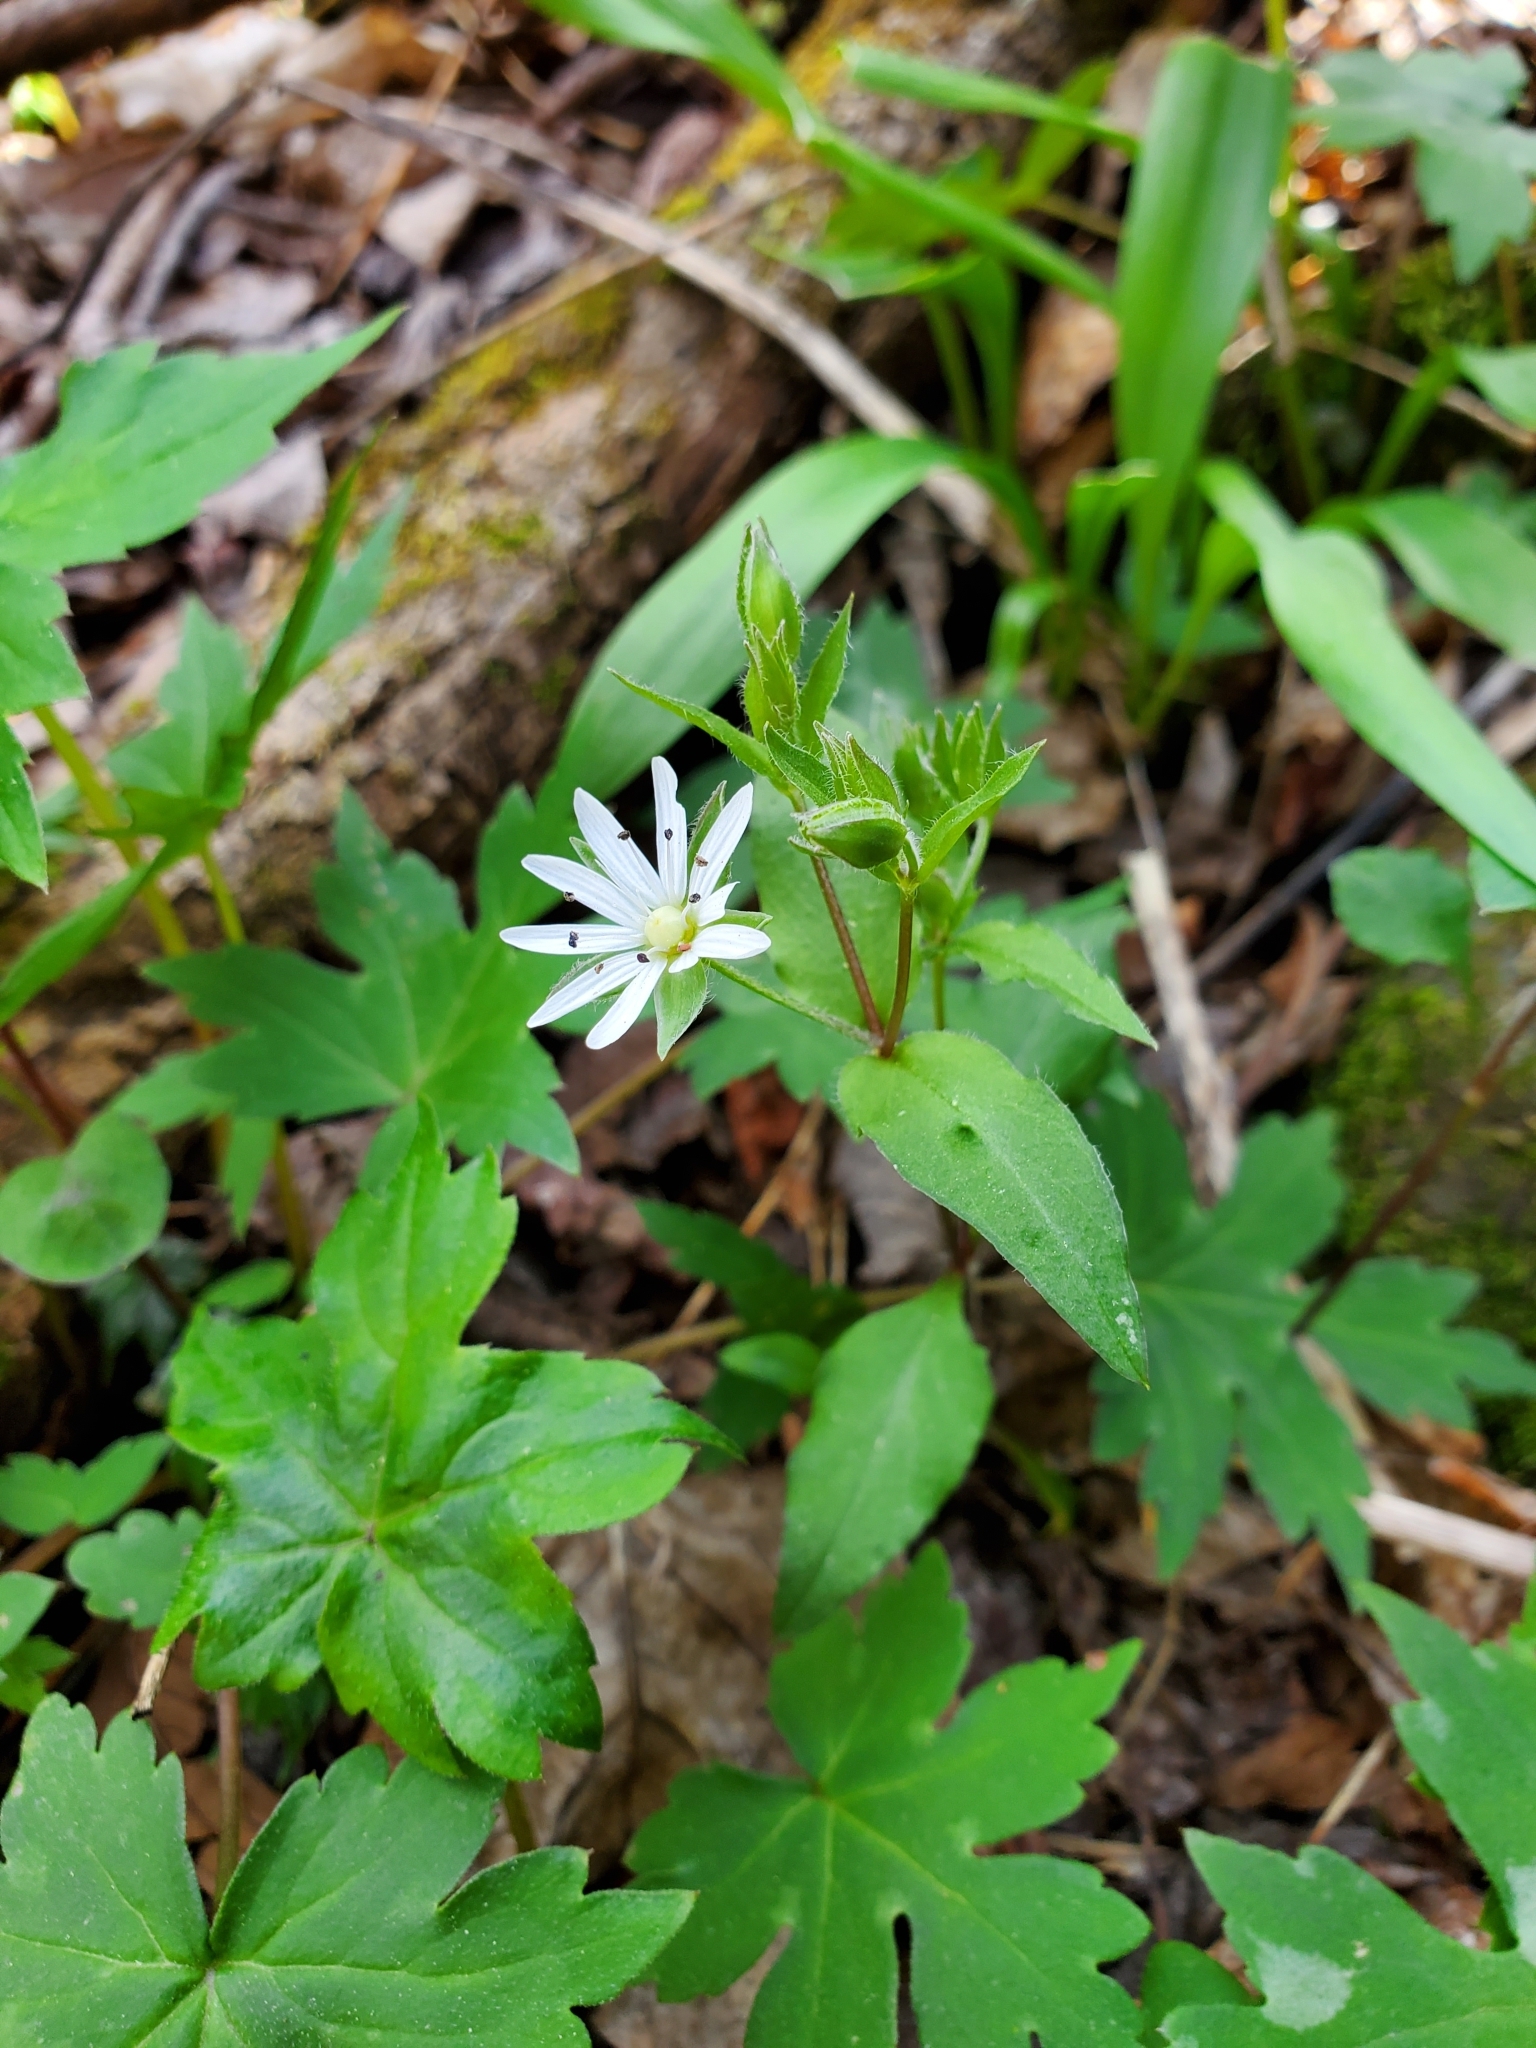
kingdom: Plantae
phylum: Tracheophyta
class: Magnoliopsida
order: Caryophyllales
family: Caryophyllaceae
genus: Stellaria
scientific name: Stellaria pubera
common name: Star chickweed
